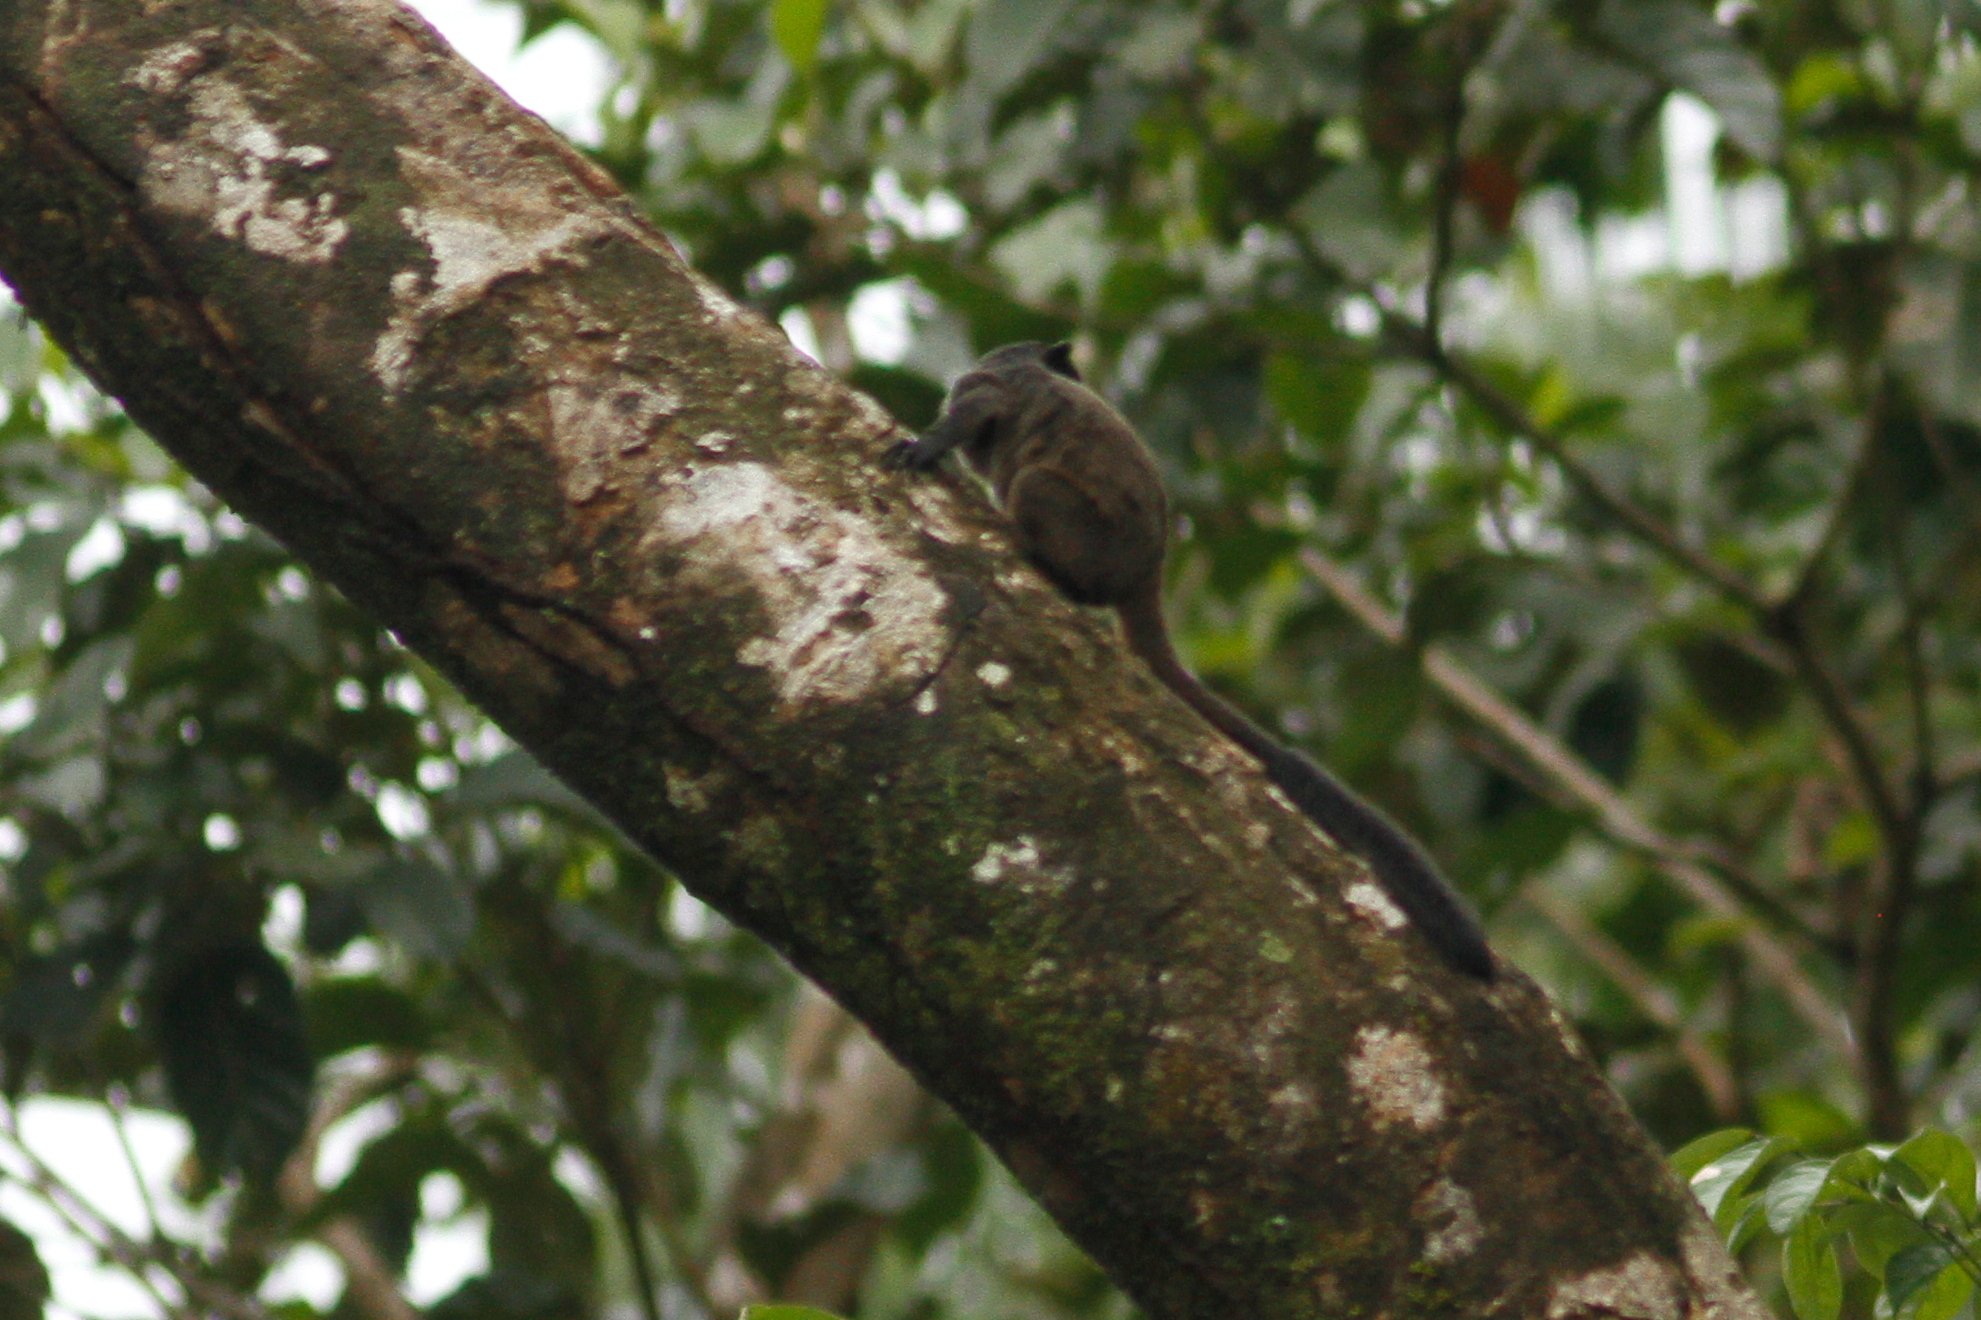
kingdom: Animalia
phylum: Chordata
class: Mammalia
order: Primates
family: Callitrichidae
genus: Leontocebus
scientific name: Leontocebus nigricollis
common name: Black-mantled tamarin
